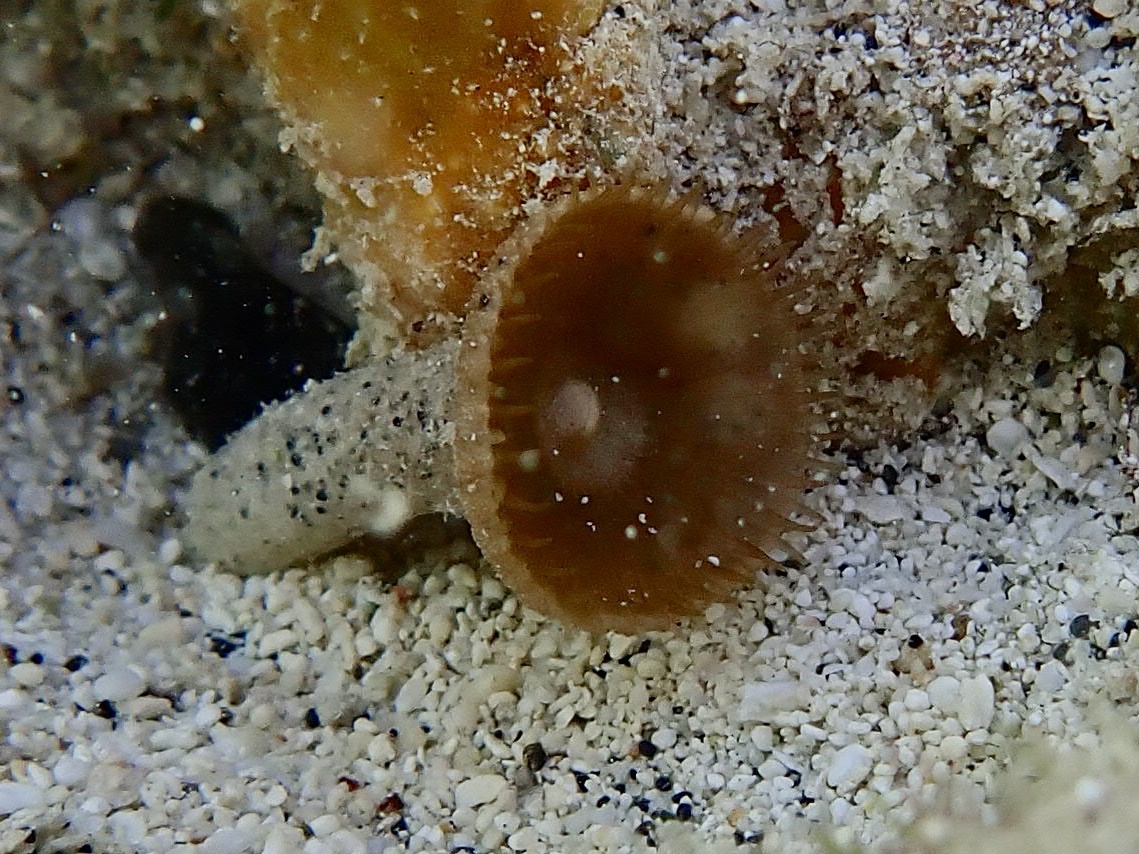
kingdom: Animalia
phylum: Cnidaria
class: Anthozoa
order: Zoantharia
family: Sphenopidae
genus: Palythoa
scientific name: Palythoa grandiflora
